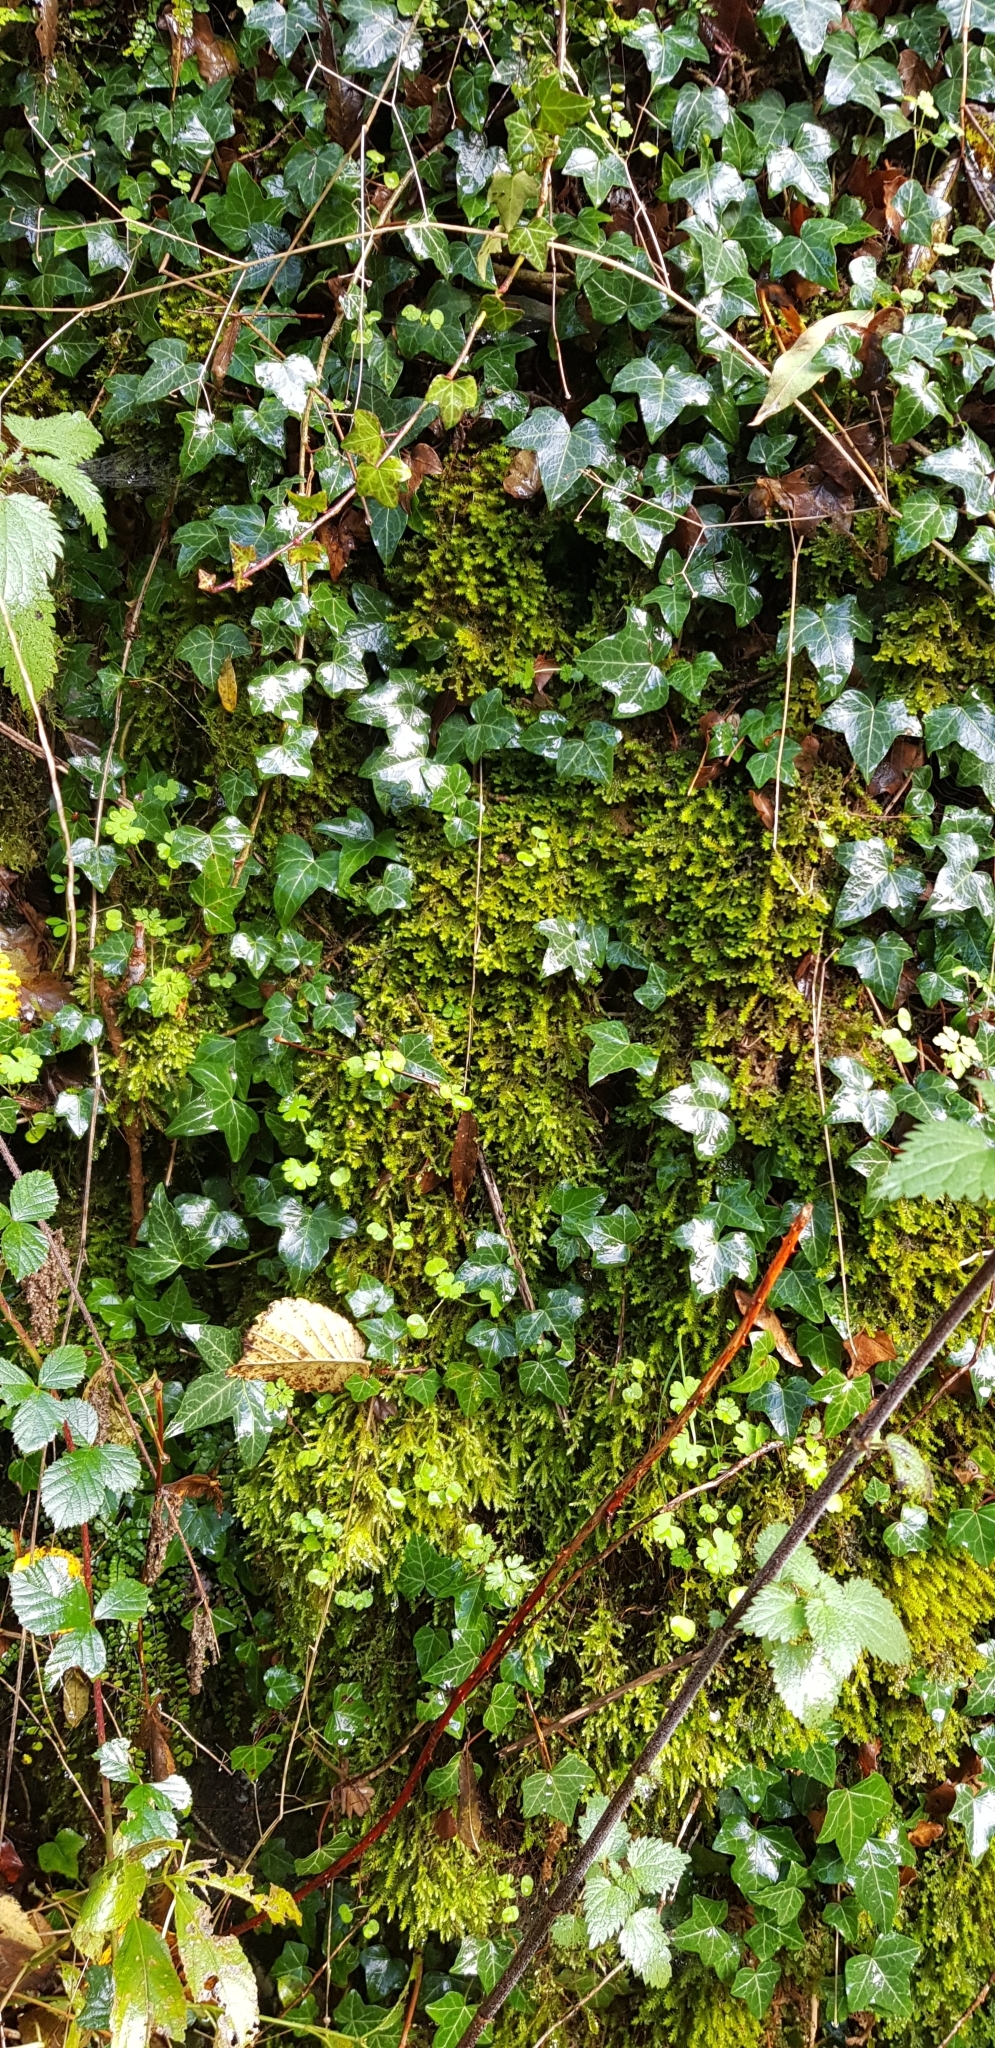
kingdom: Plantae
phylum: Marchantiophyta
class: Jungermanniopsida
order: Porellales
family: Porellaceae
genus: Porella
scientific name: Porella platyphylla
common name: Wall scalewort
